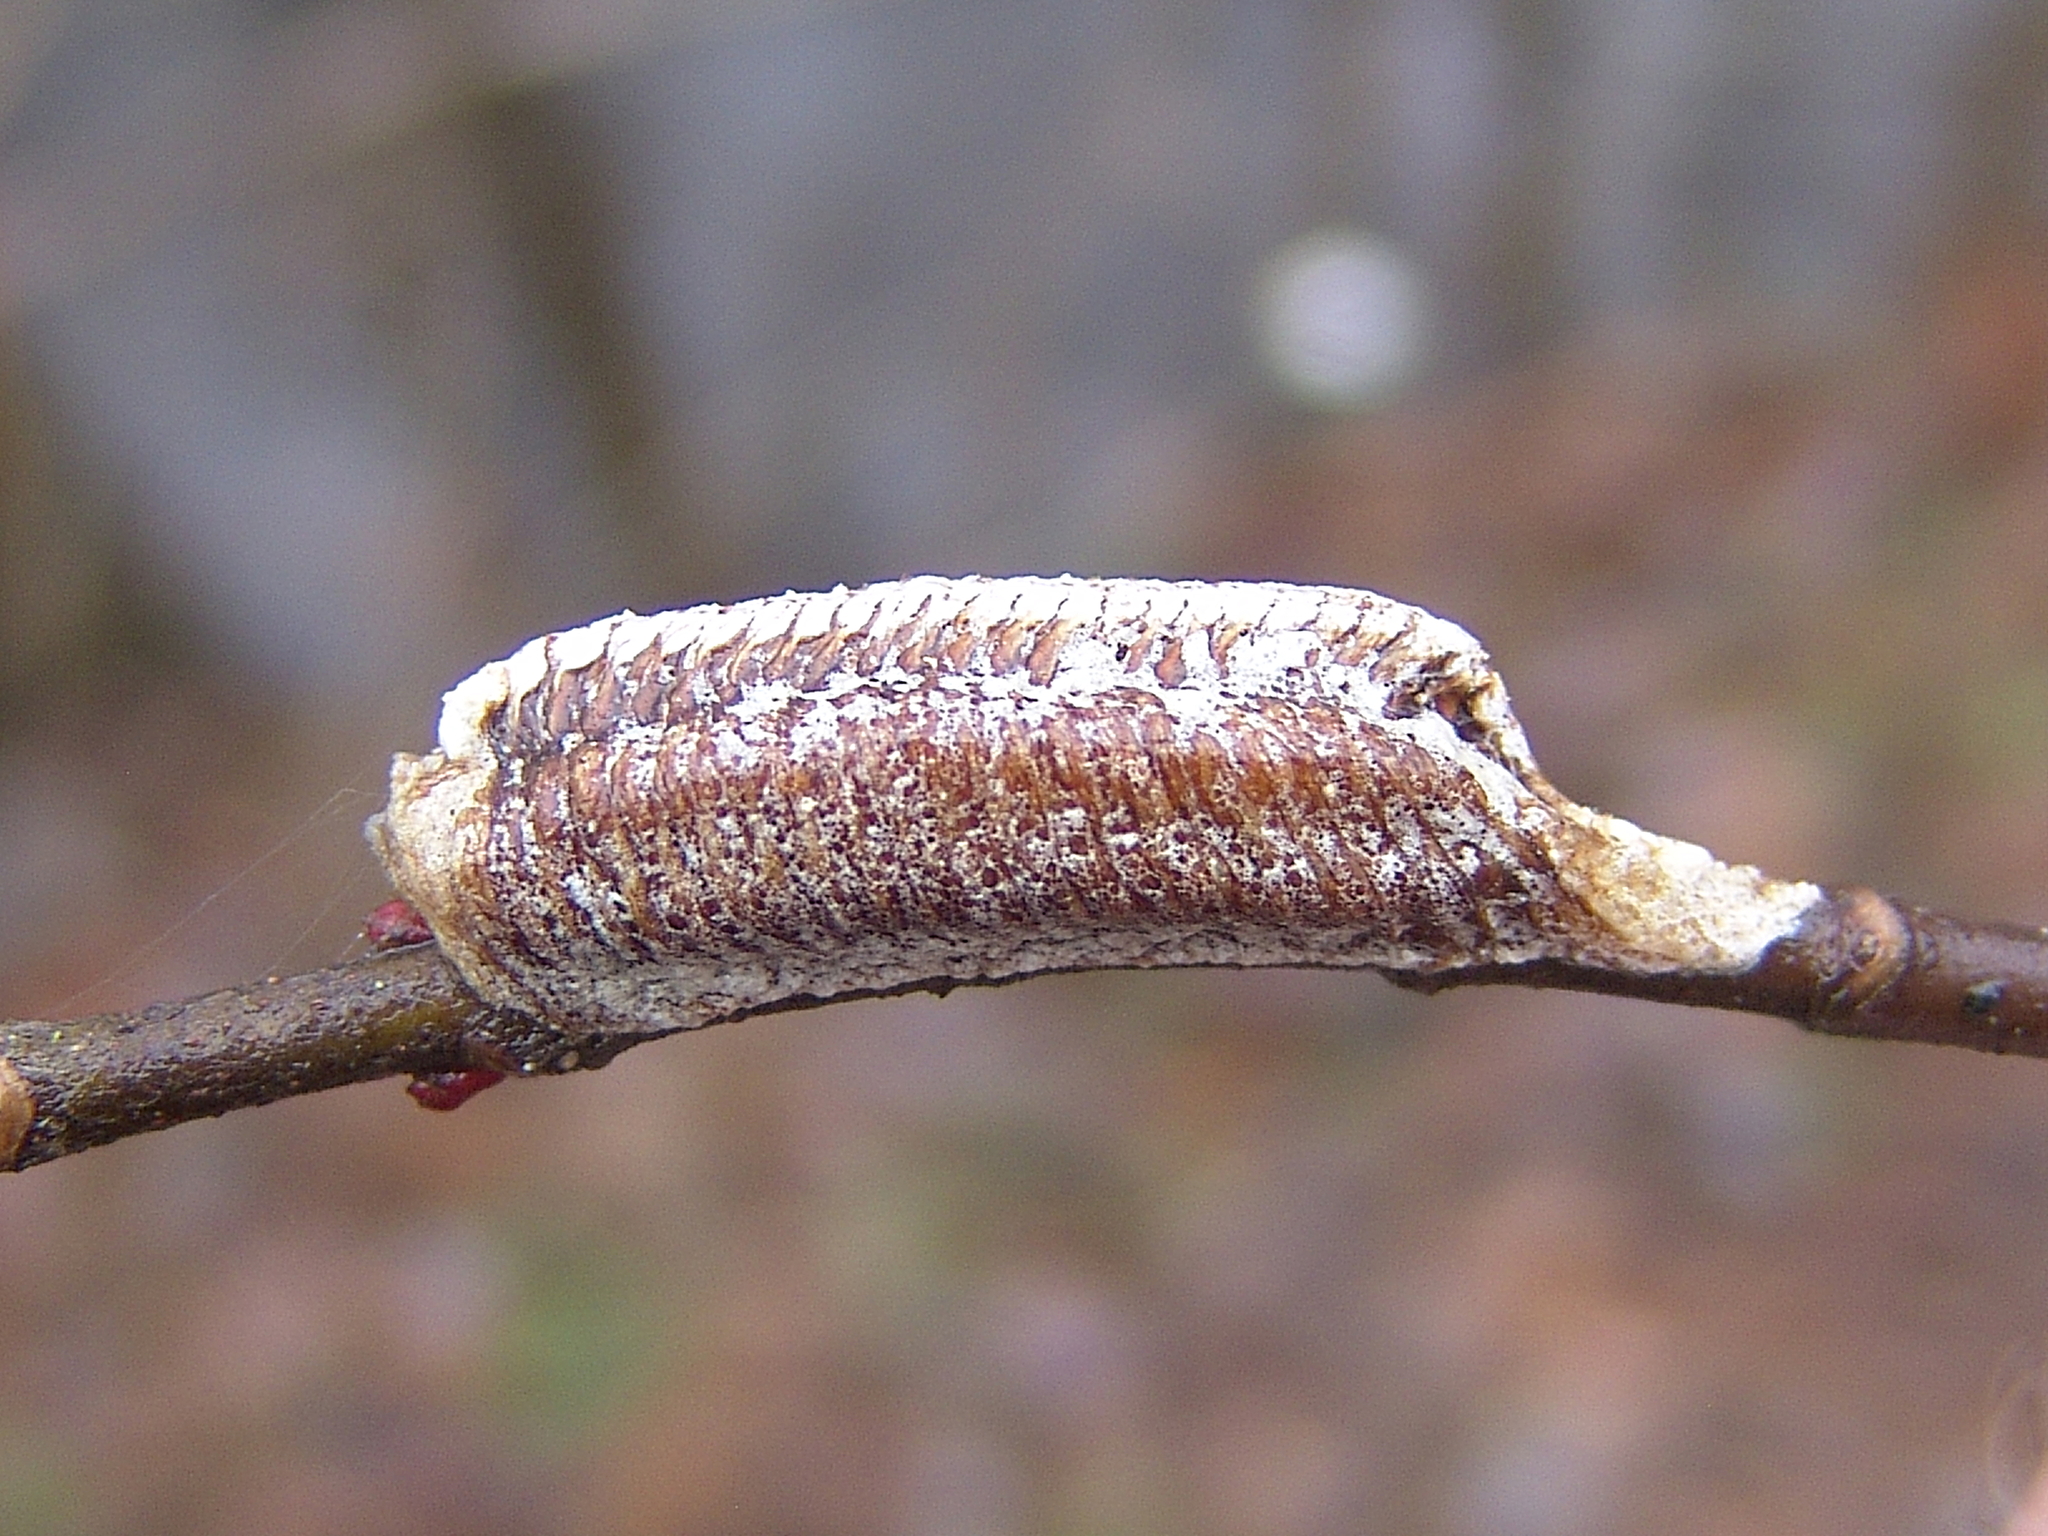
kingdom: Animalia
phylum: Arthropoda
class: Insecta
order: Mantodea
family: Mantidae
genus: Stagmomantis
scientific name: Stagmomantis carolina
